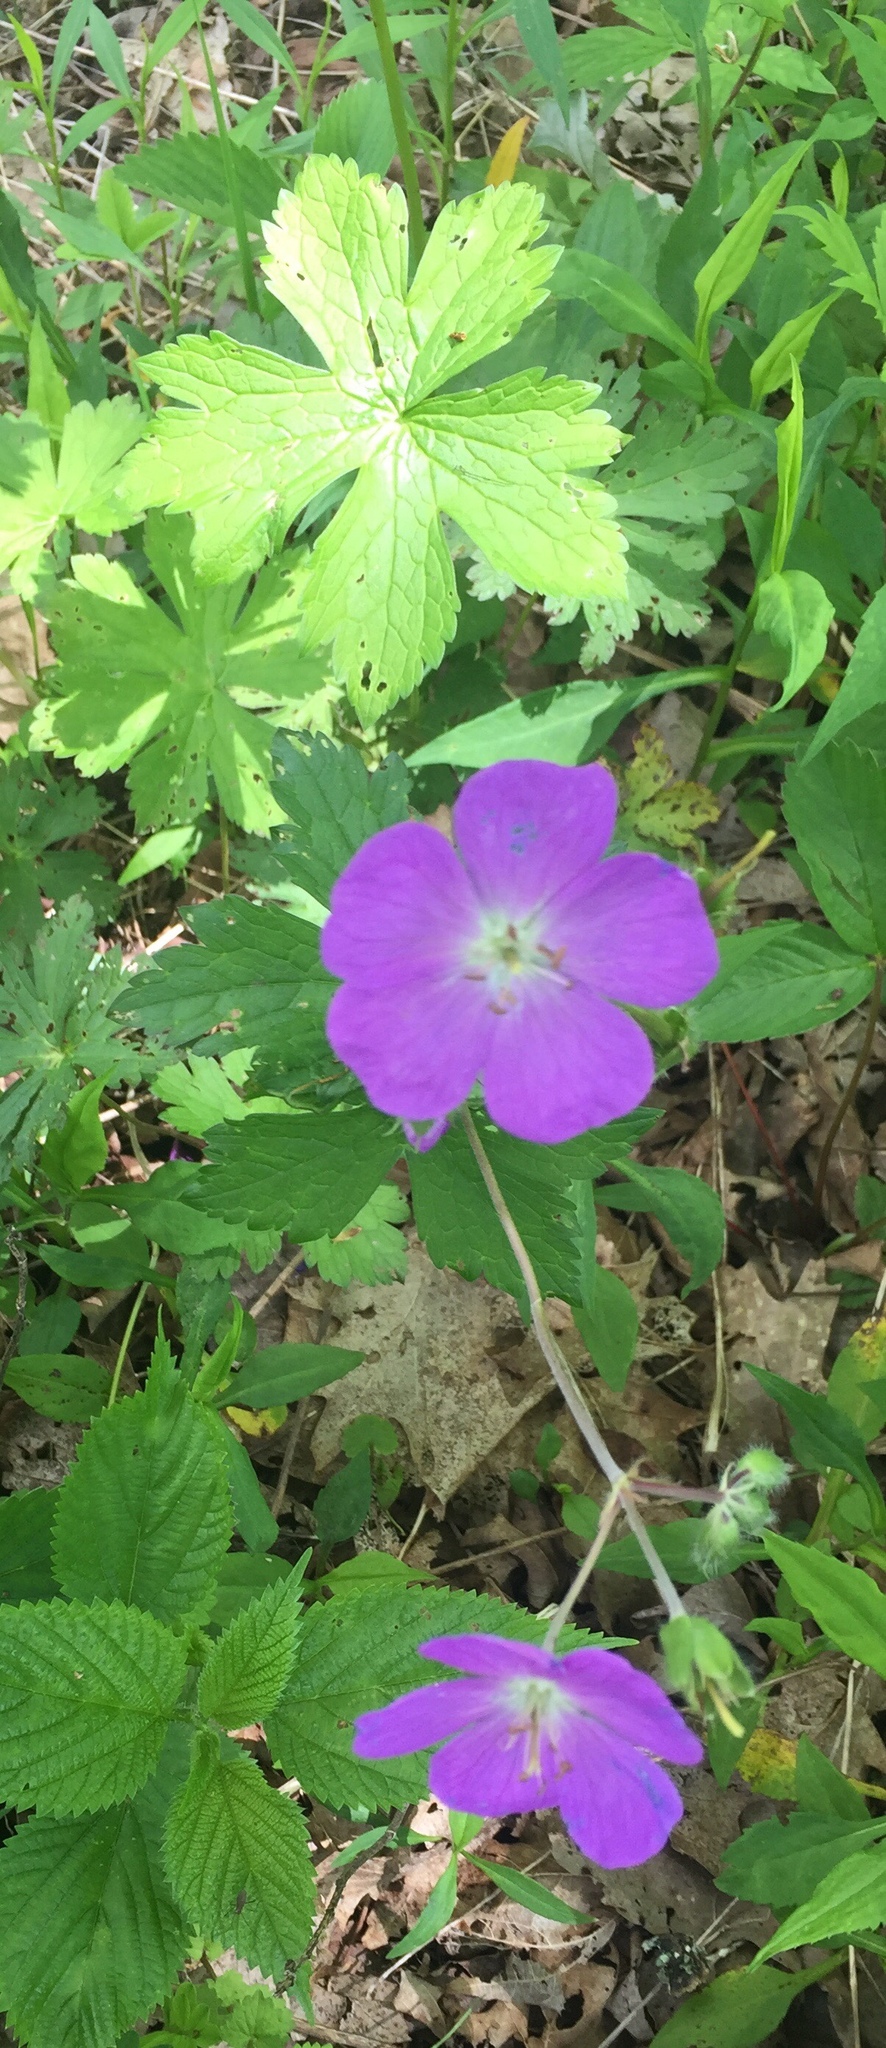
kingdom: Plantae
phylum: Tracheophyta
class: Magnoliopsida
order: Geraniales
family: Geraniaceae
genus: Geranium
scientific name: Geranium maculatum
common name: Spotted geranium
